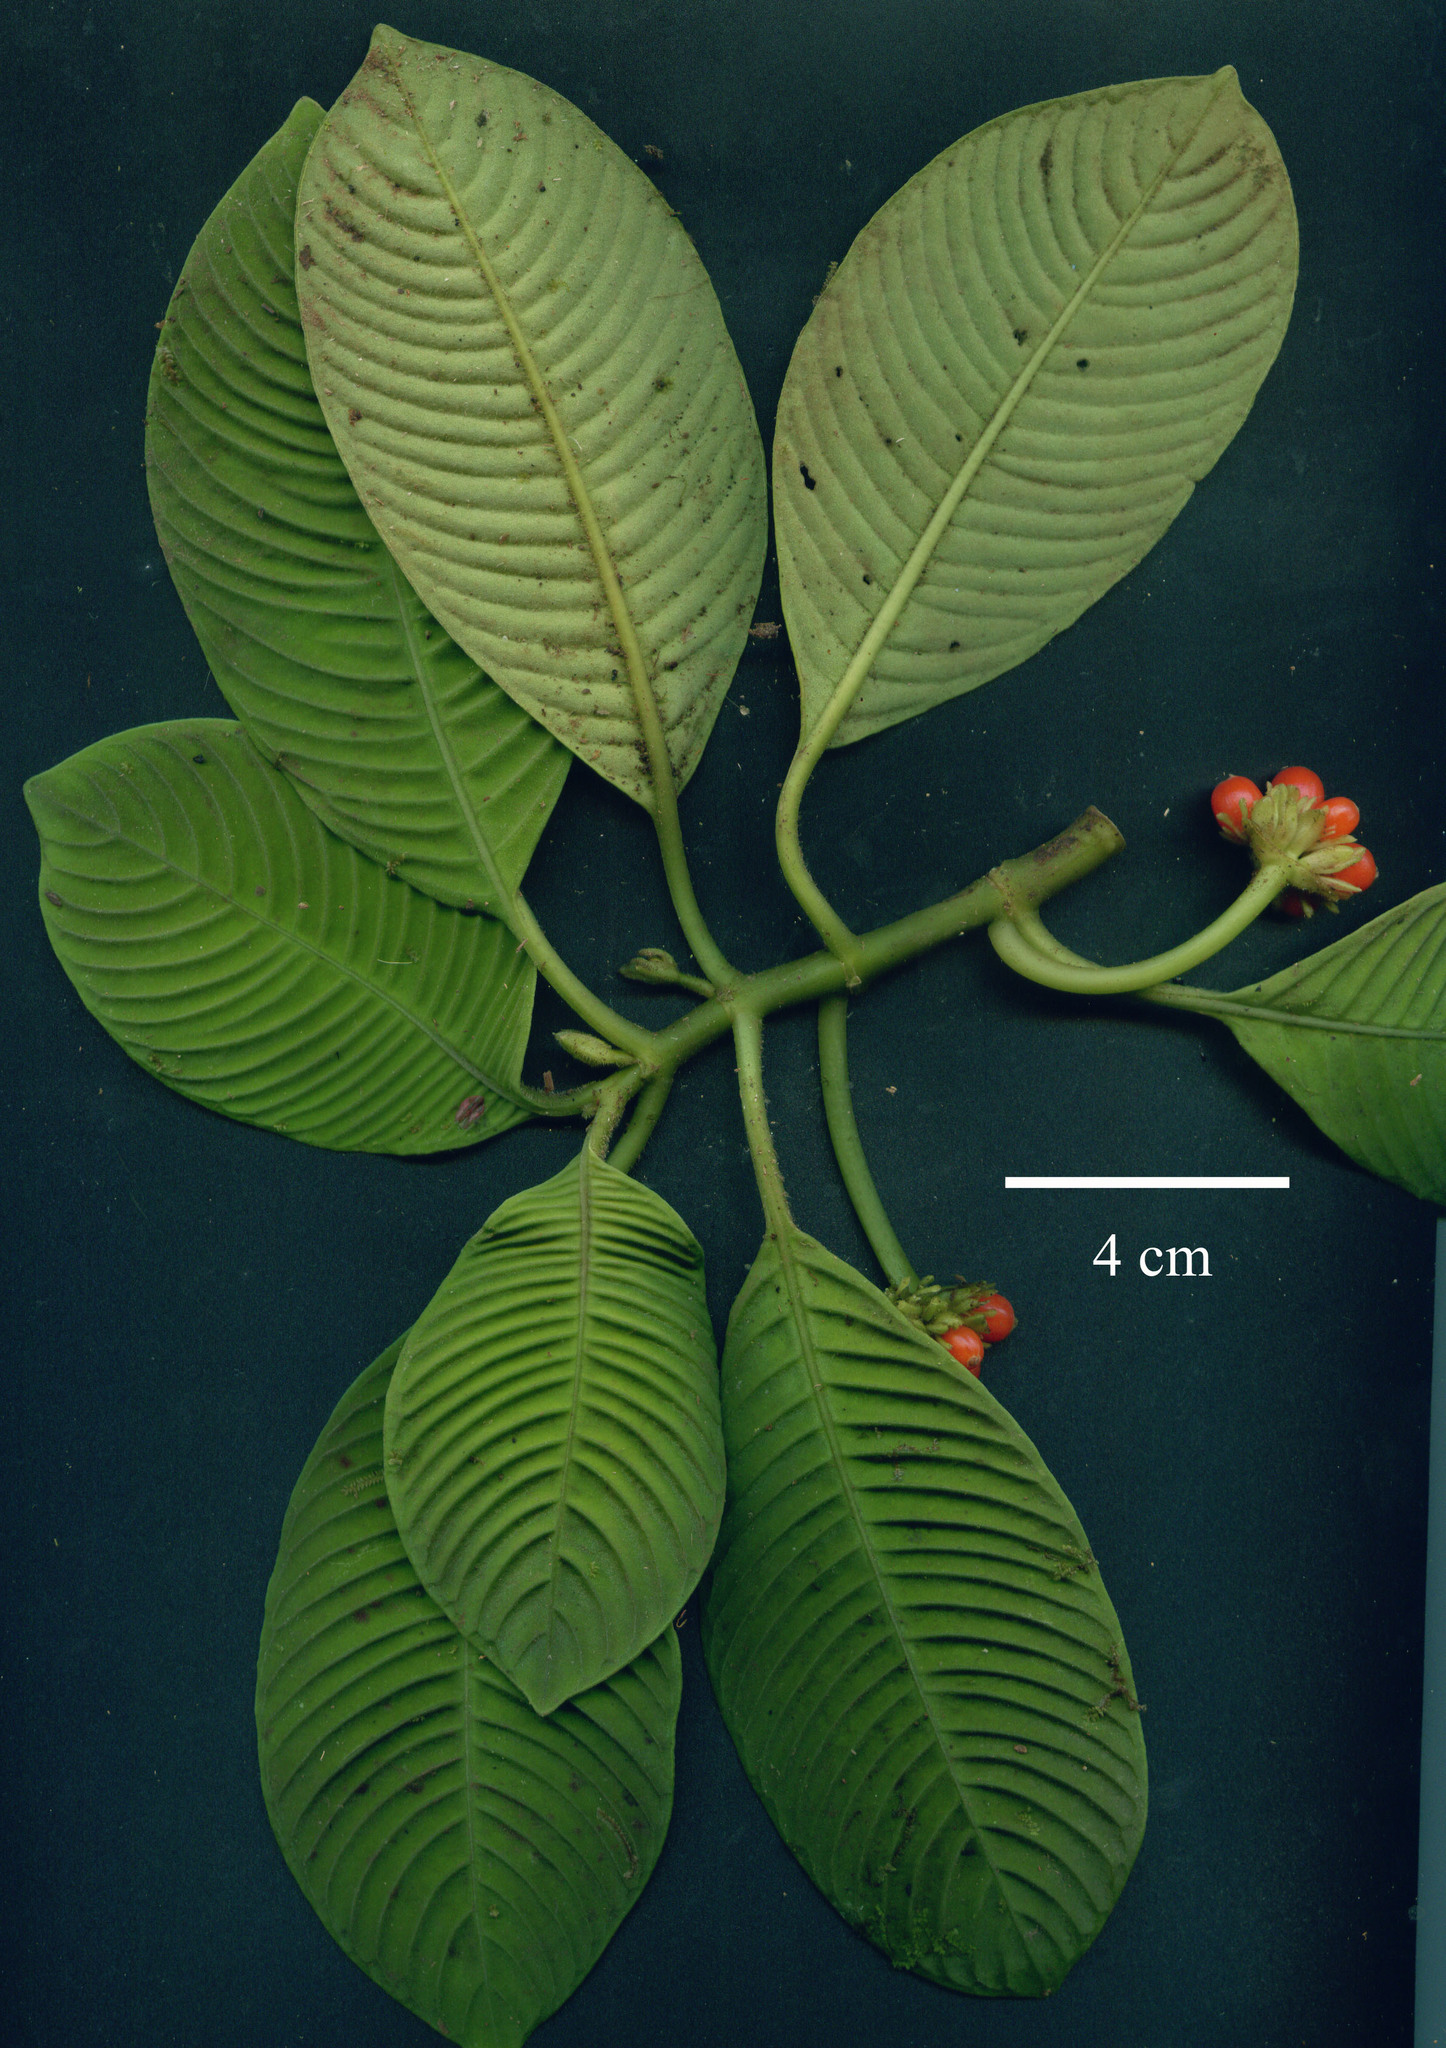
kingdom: Plantae
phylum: Tracheophyta
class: Magnoliopsida
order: Gentianales
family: Rubiaceae
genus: Notopleura
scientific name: Notopleura polyphlebia
